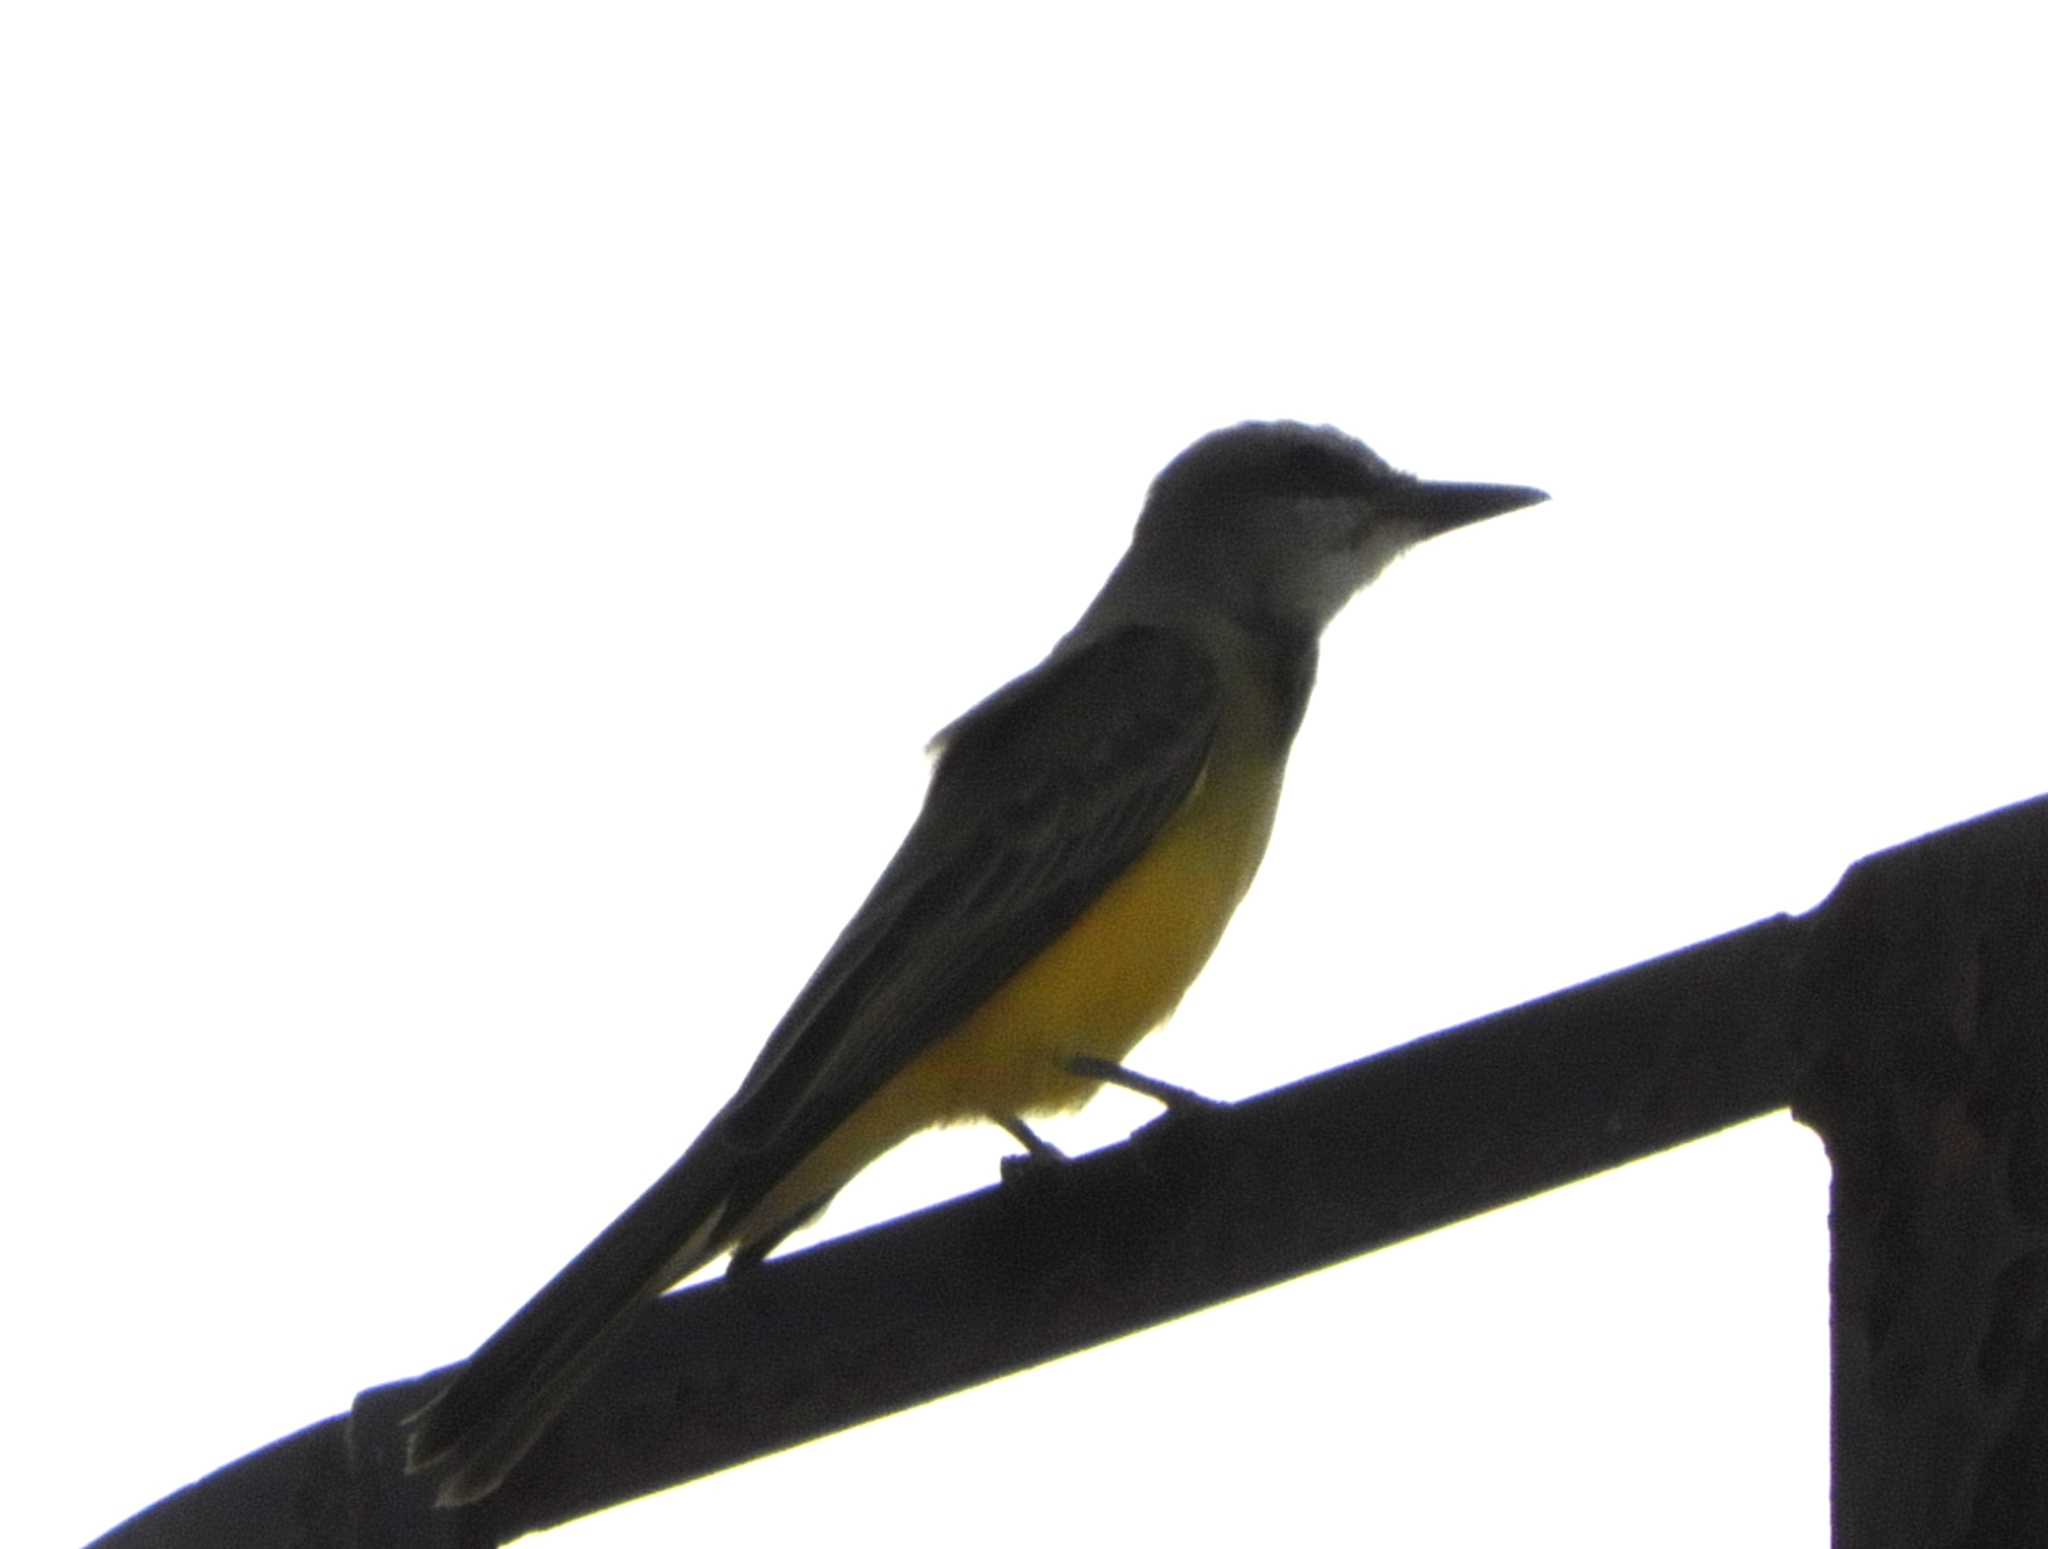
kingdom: Animalia
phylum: Chordata
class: Aves
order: Passeriformes
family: Tyrannidae
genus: Tyrannus
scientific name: Tyrannus melancholicus
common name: Tropical kingbird
